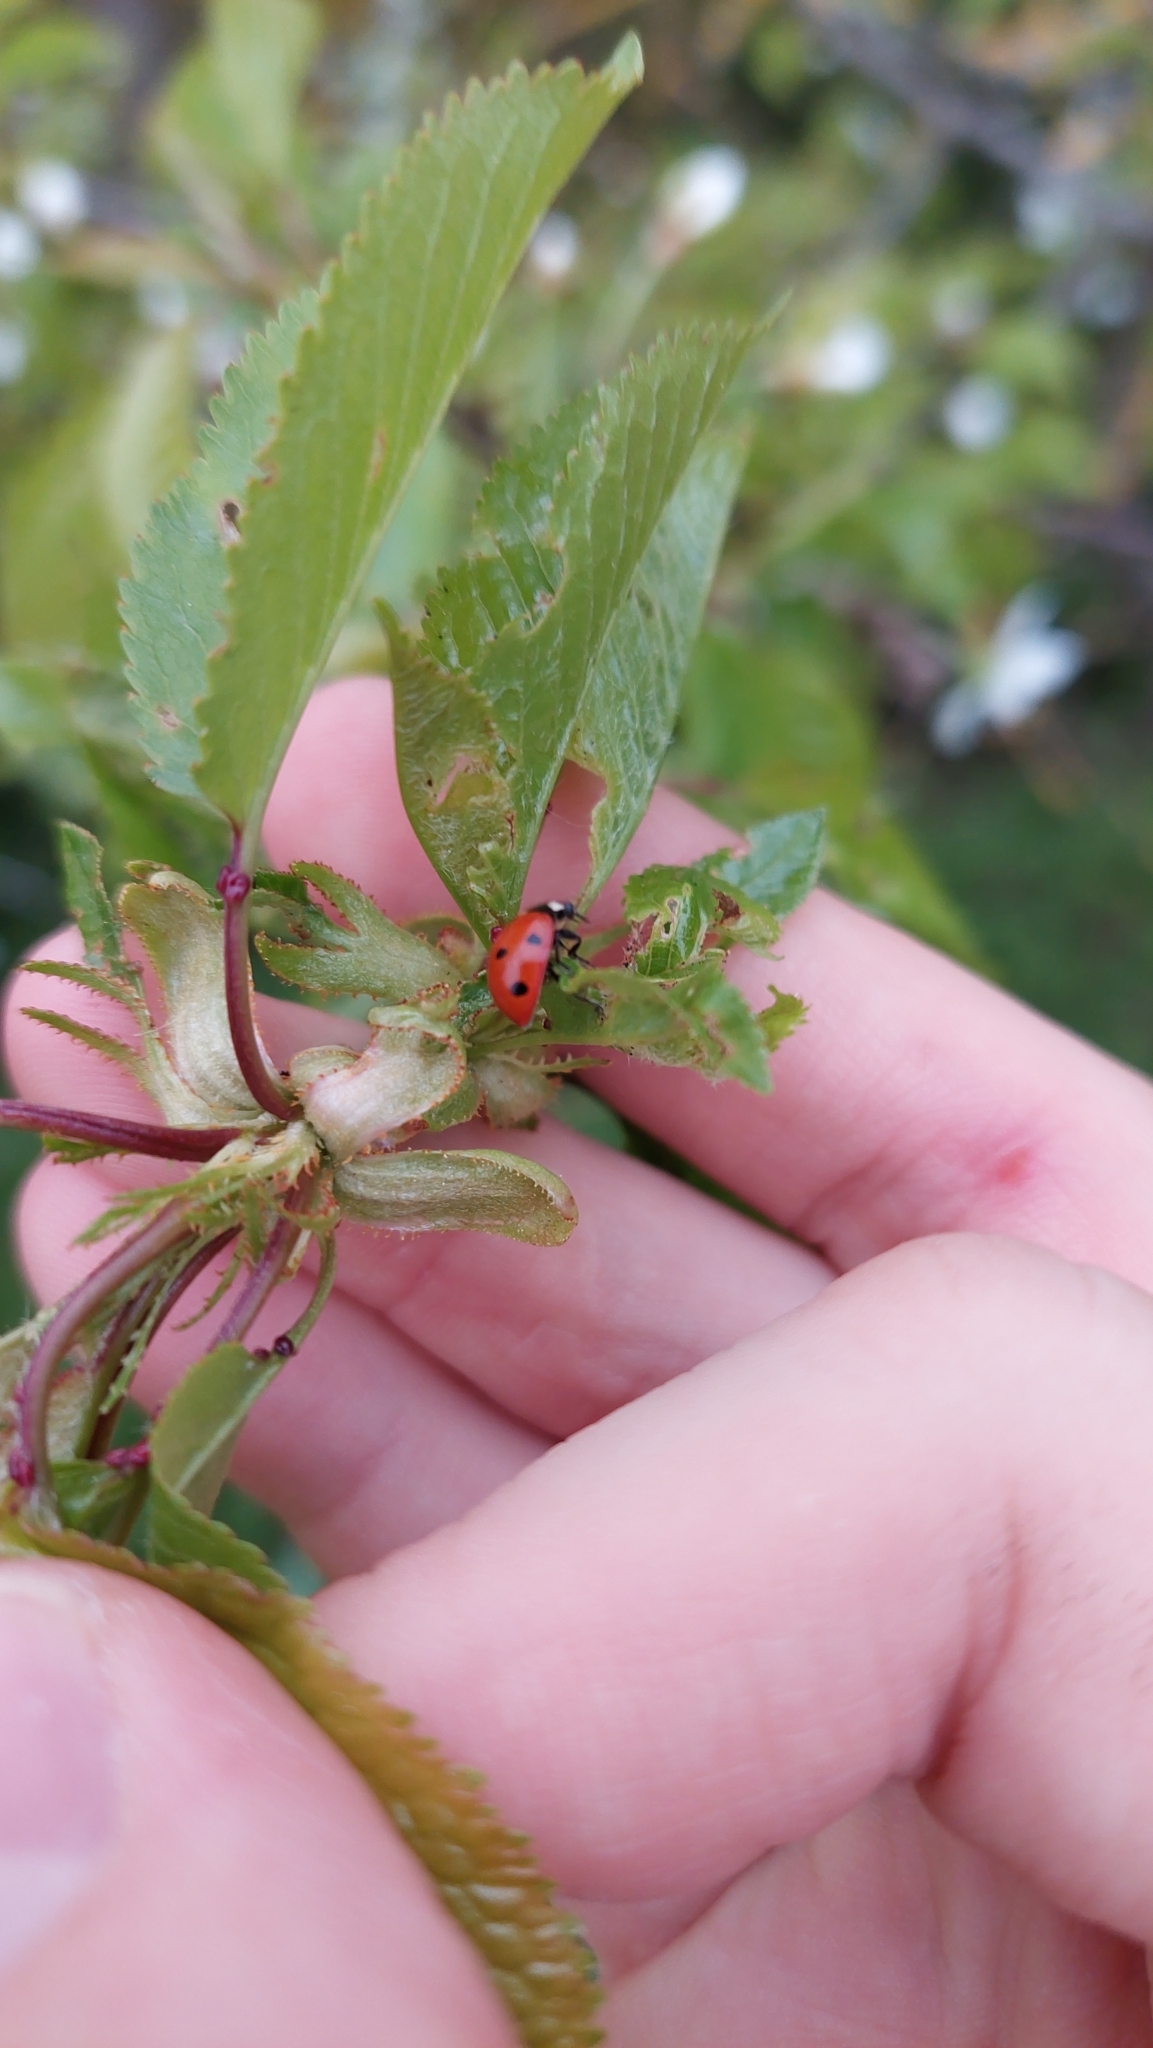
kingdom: Animalia
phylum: Arthropoda
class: Insecta
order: Coleoptera
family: Coccinellidae
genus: Coccinella
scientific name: Coccinella septempunctata
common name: Sevenspotted lady beetle
